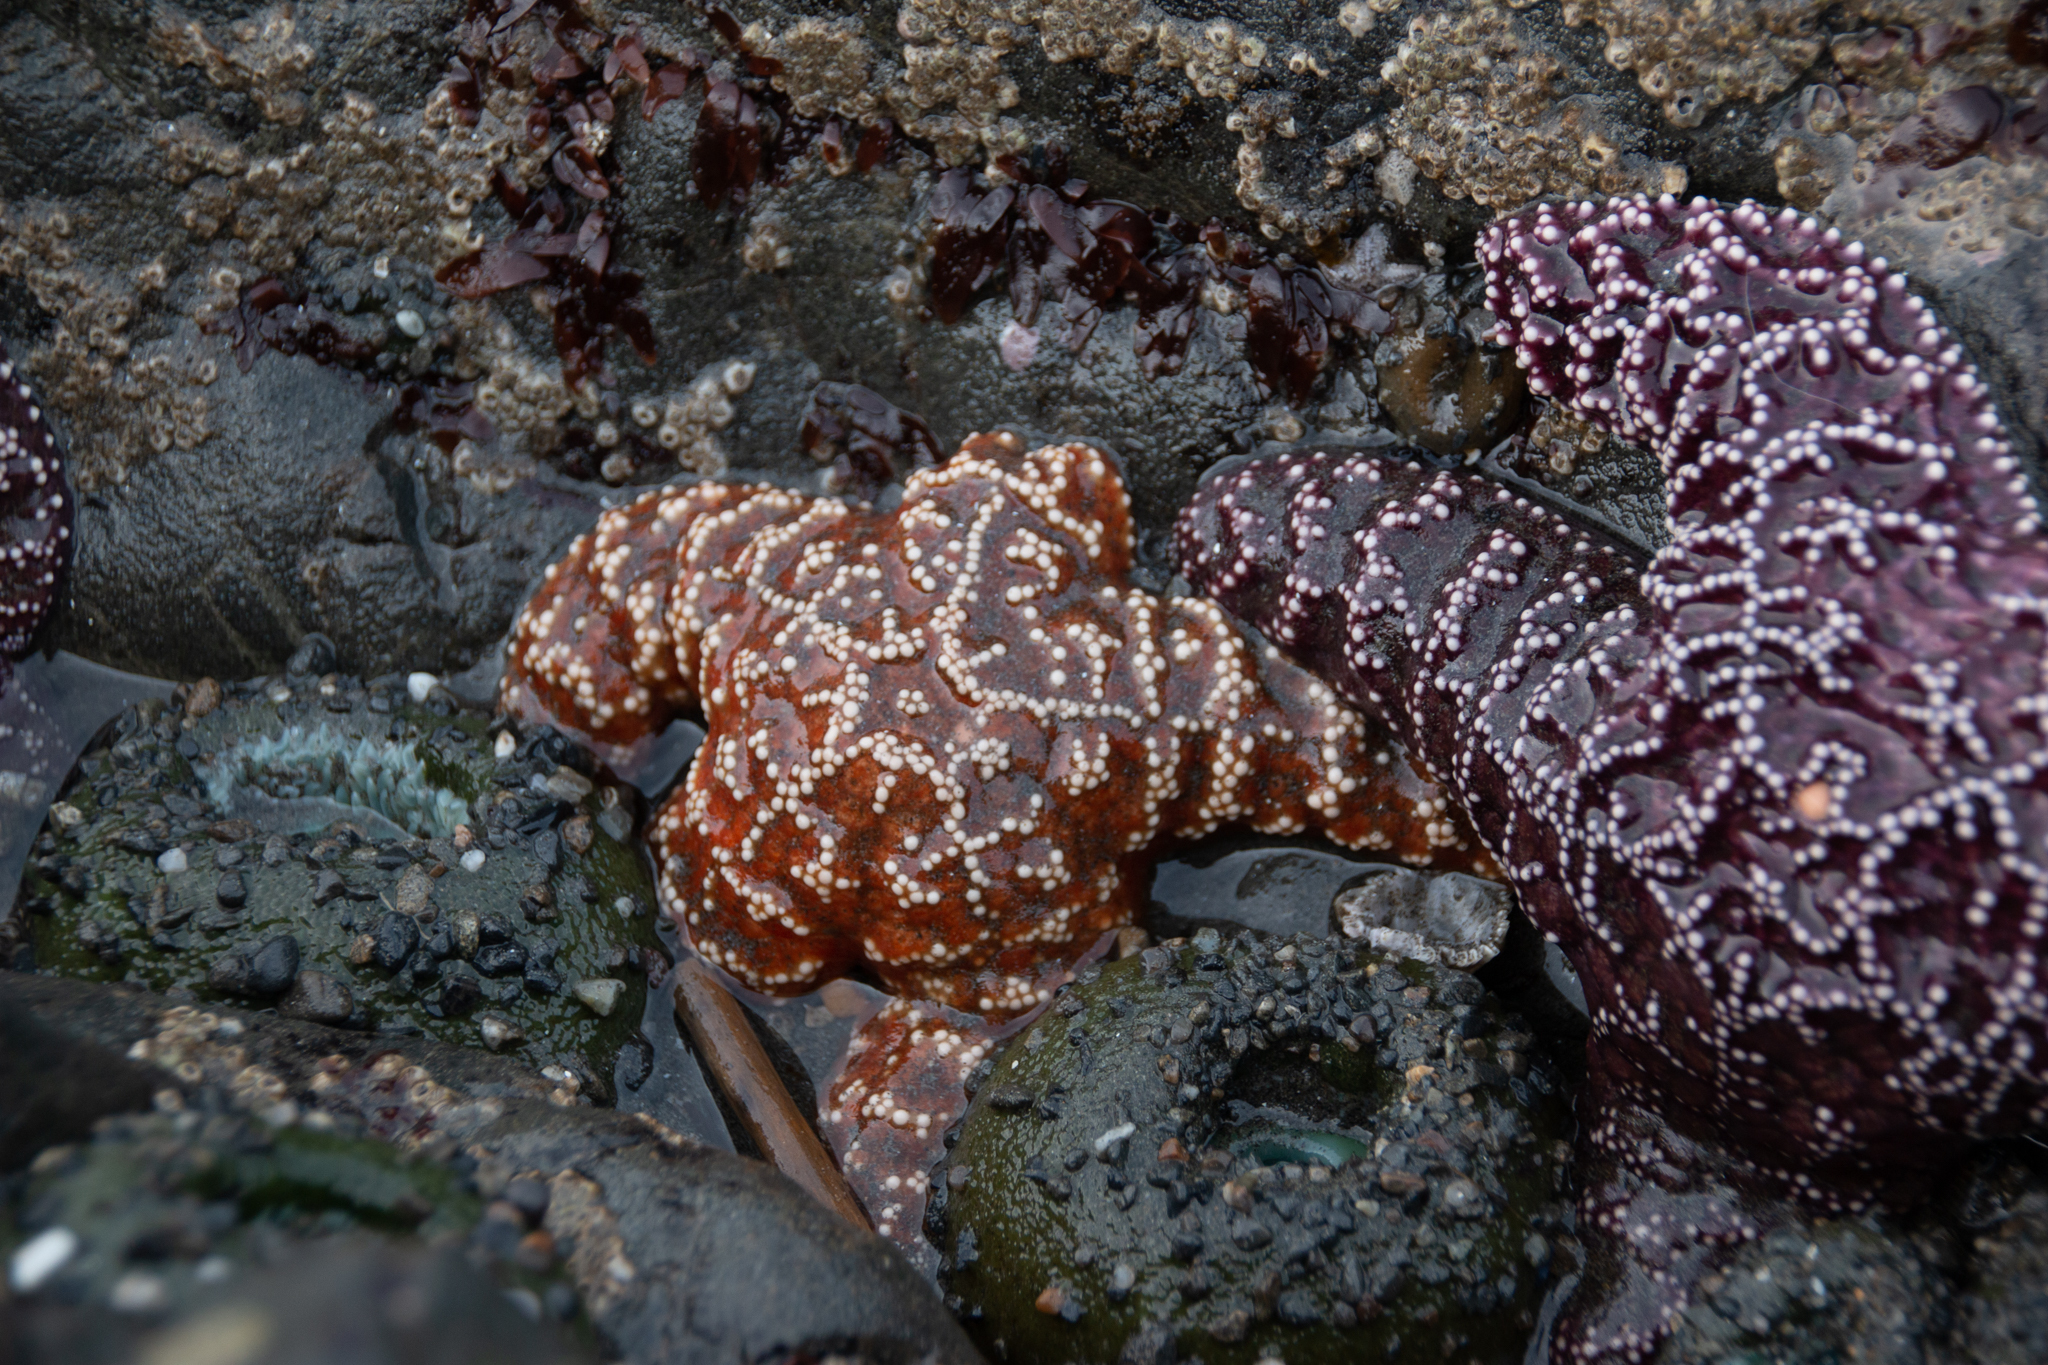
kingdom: Animalia
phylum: Echinodermata
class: Asteroidea
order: Forcipulatida
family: Asteriidae
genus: Pisaster
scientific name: Pisaster ochraceus
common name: Ochre stars
